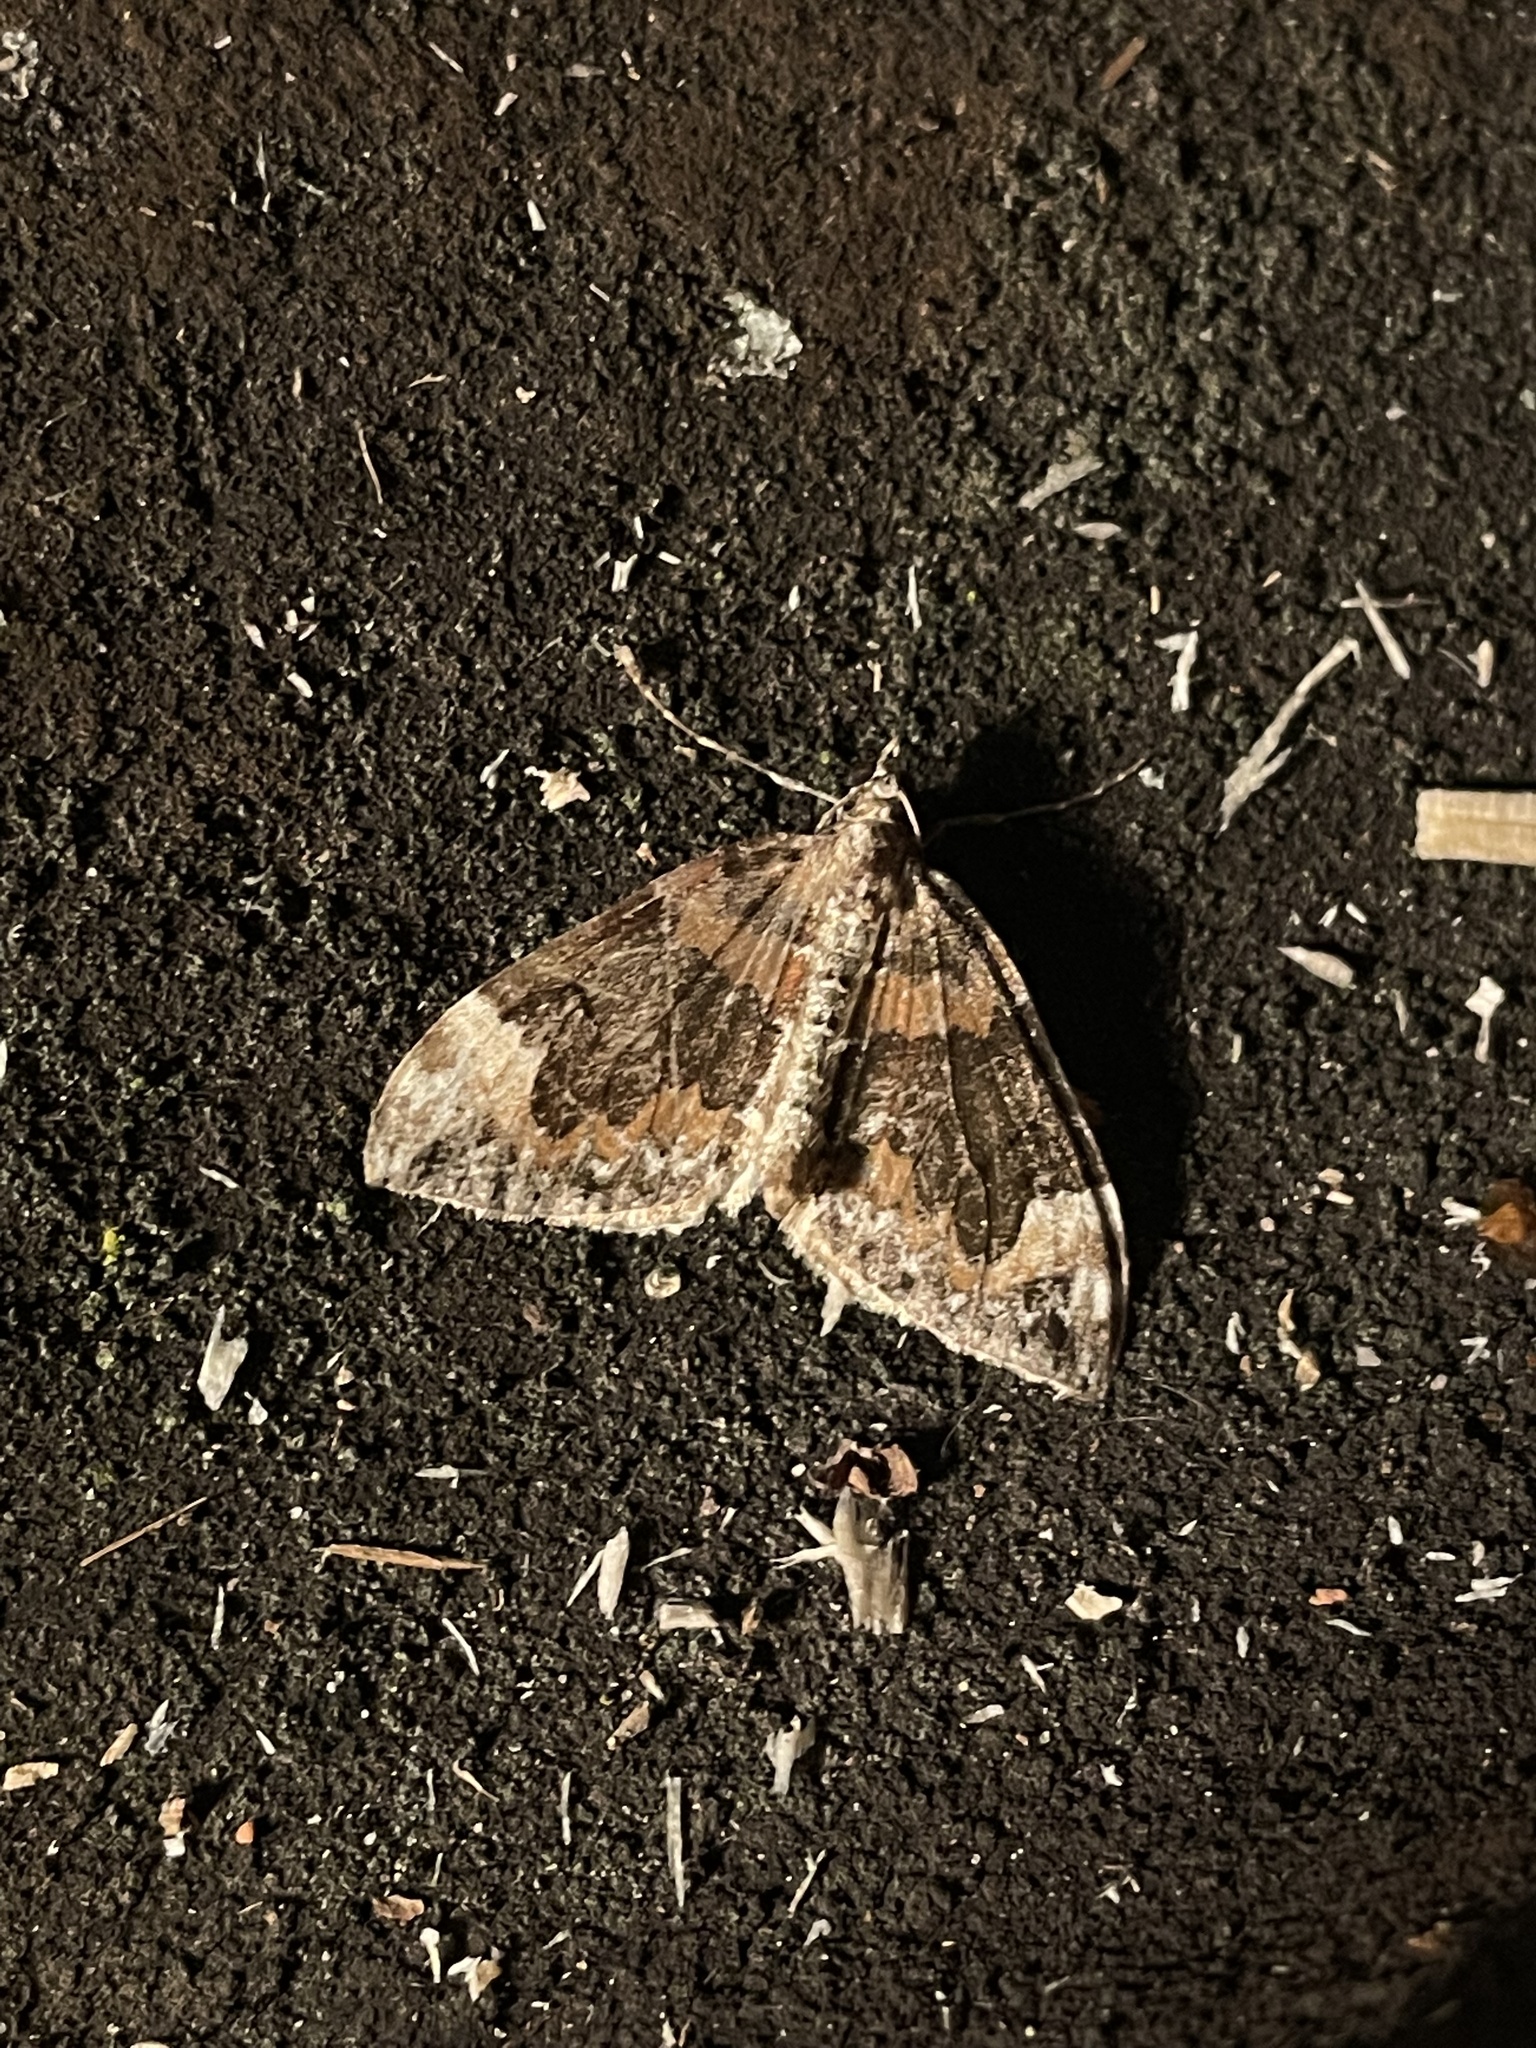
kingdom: Animalia
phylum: Arthropoda
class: Insecta
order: Lepidoptera
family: Geometridae
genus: Dysstroma
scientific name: Dysstroma citrata
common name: Dark marbled carpet
